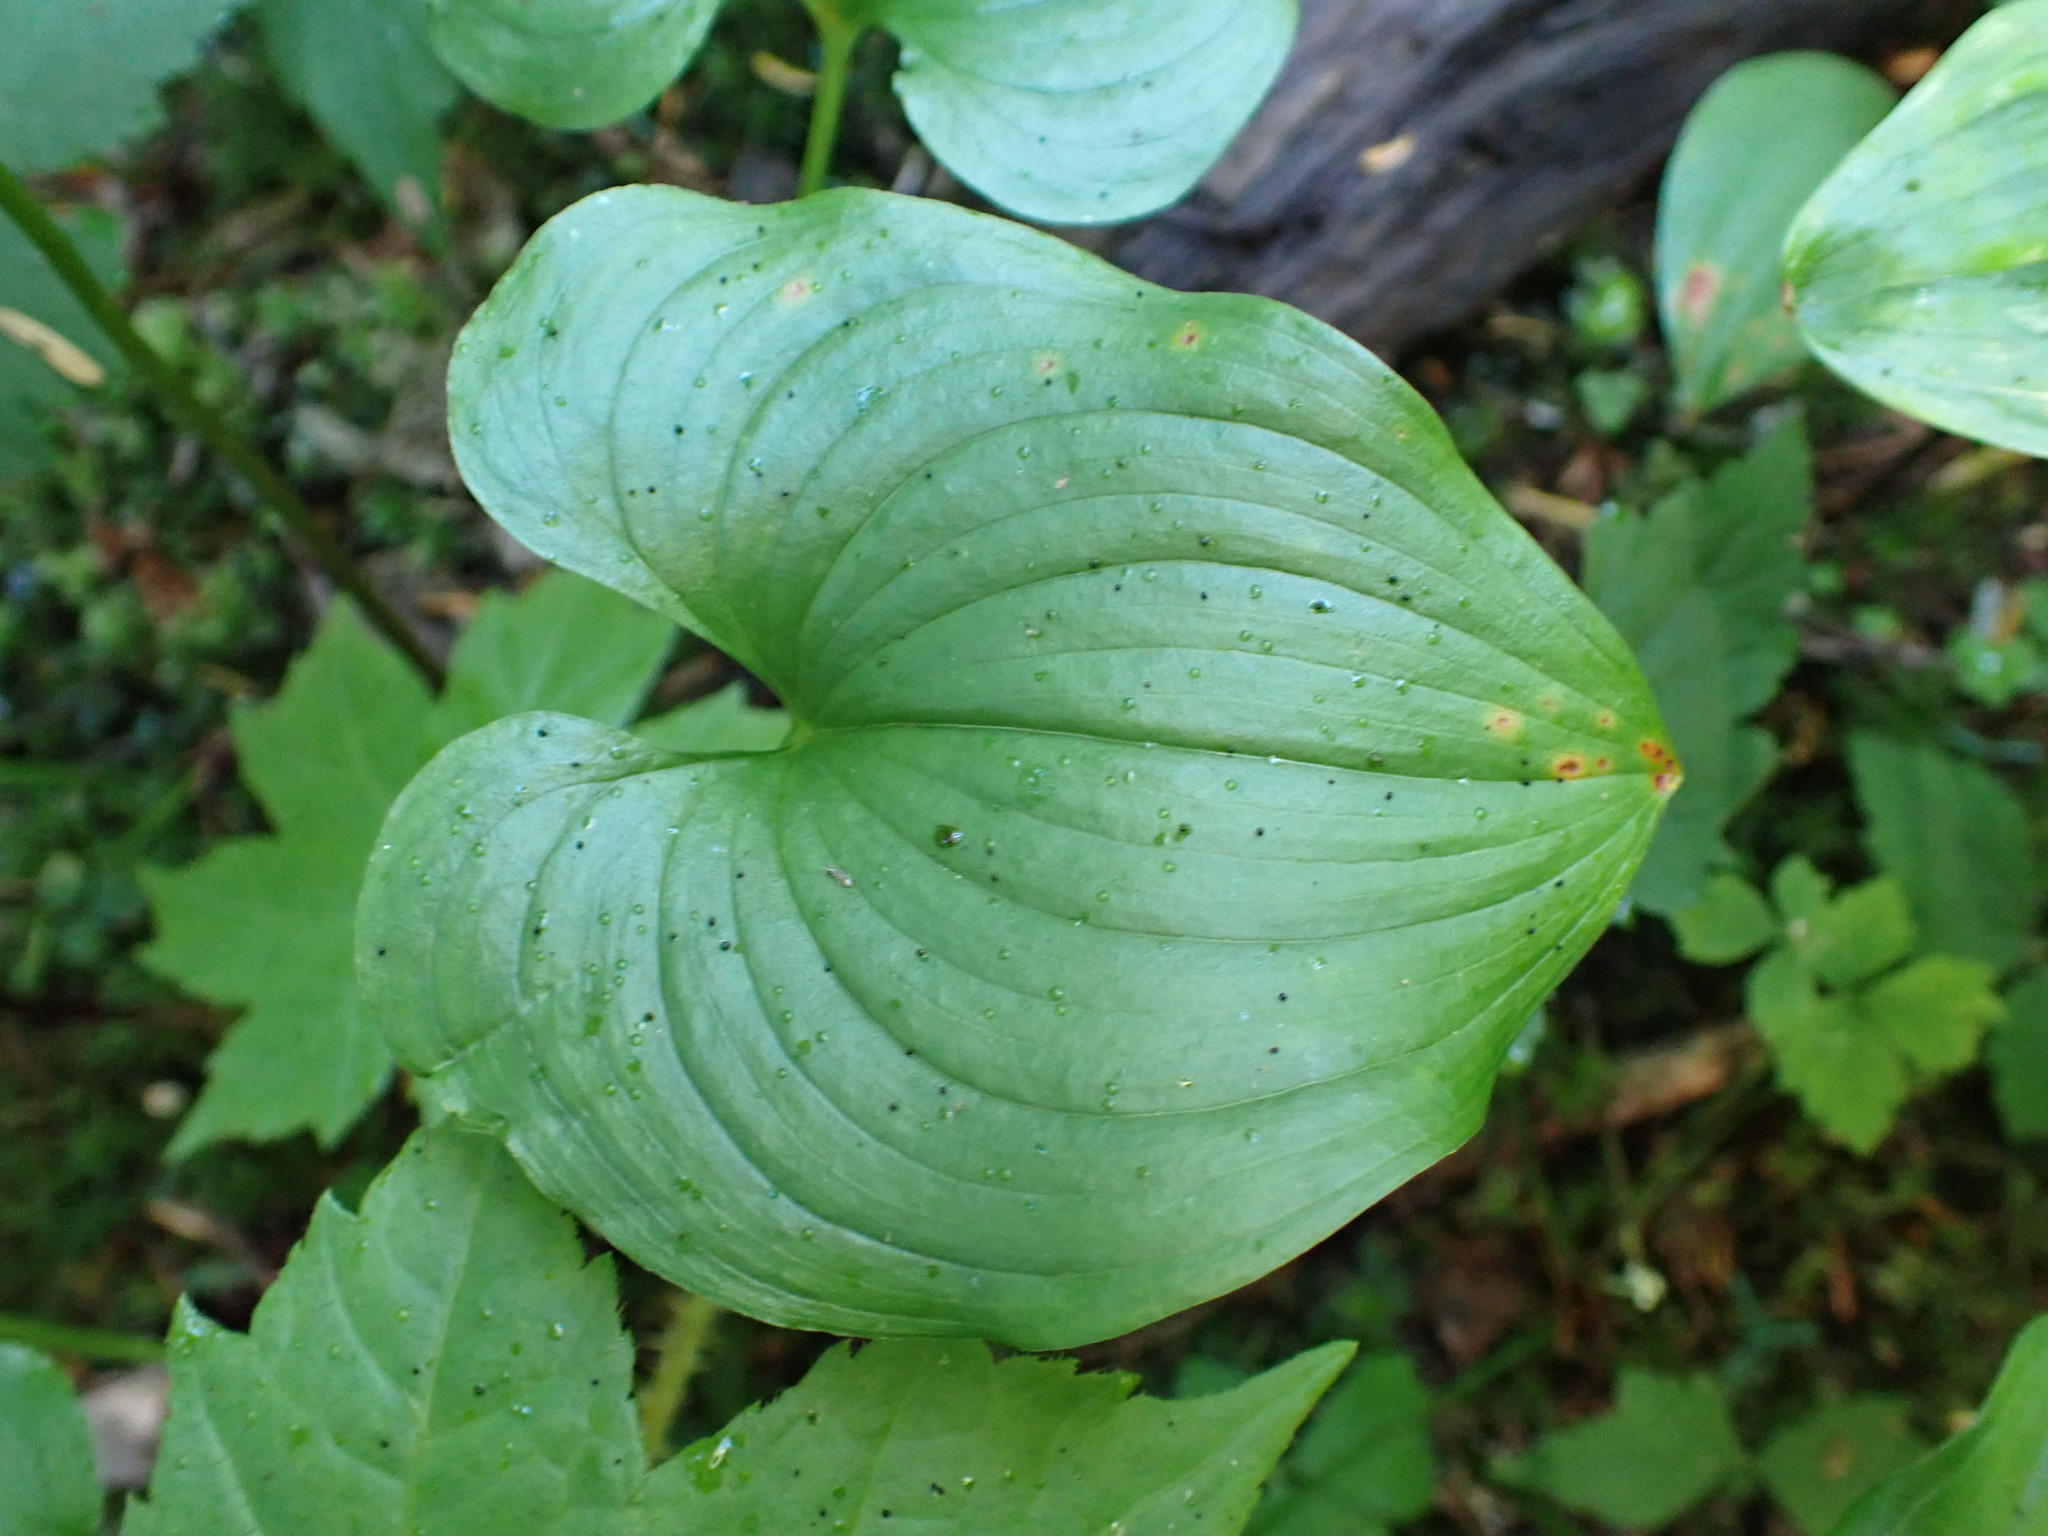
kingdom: Plantae
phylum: Tracheophyta
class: Liliopsida
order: Asparagales
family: Asparagaceae
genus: Maianthemum
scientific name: Maianthemum dilatatum
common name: False lily-of-the-valley
